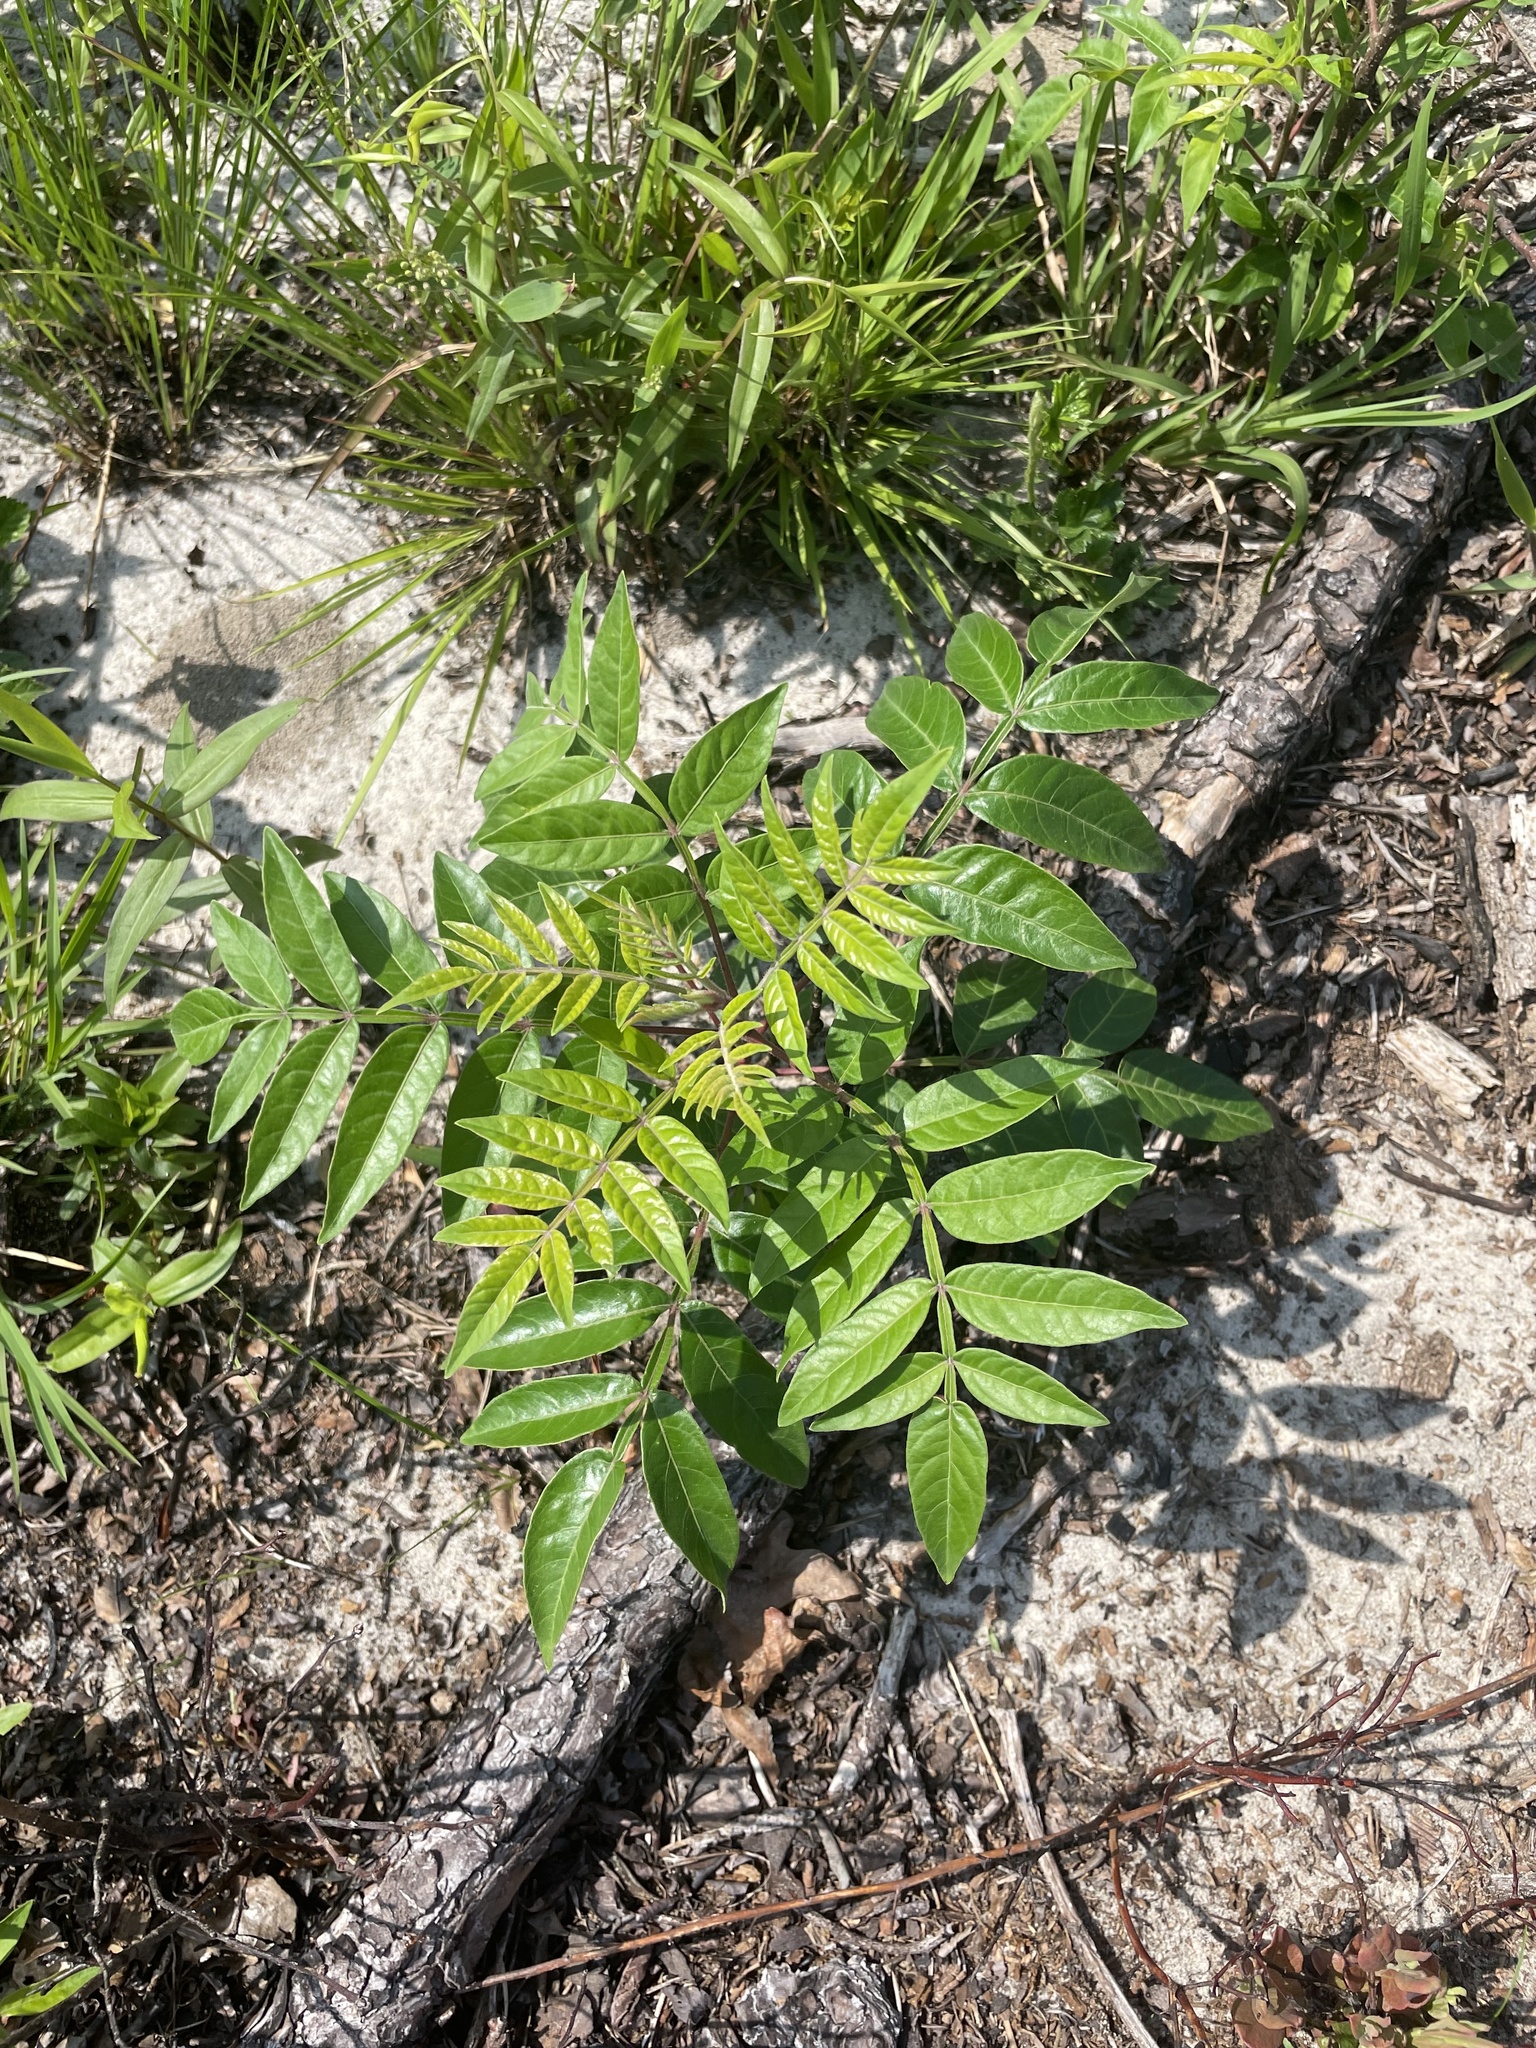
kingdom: Plantae
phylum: Tracheophyta
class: Magnoliopsida
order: Sapindales
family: Anacardiaceae
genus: Rhus
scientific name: Rhus copallina
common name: Shining sumac
